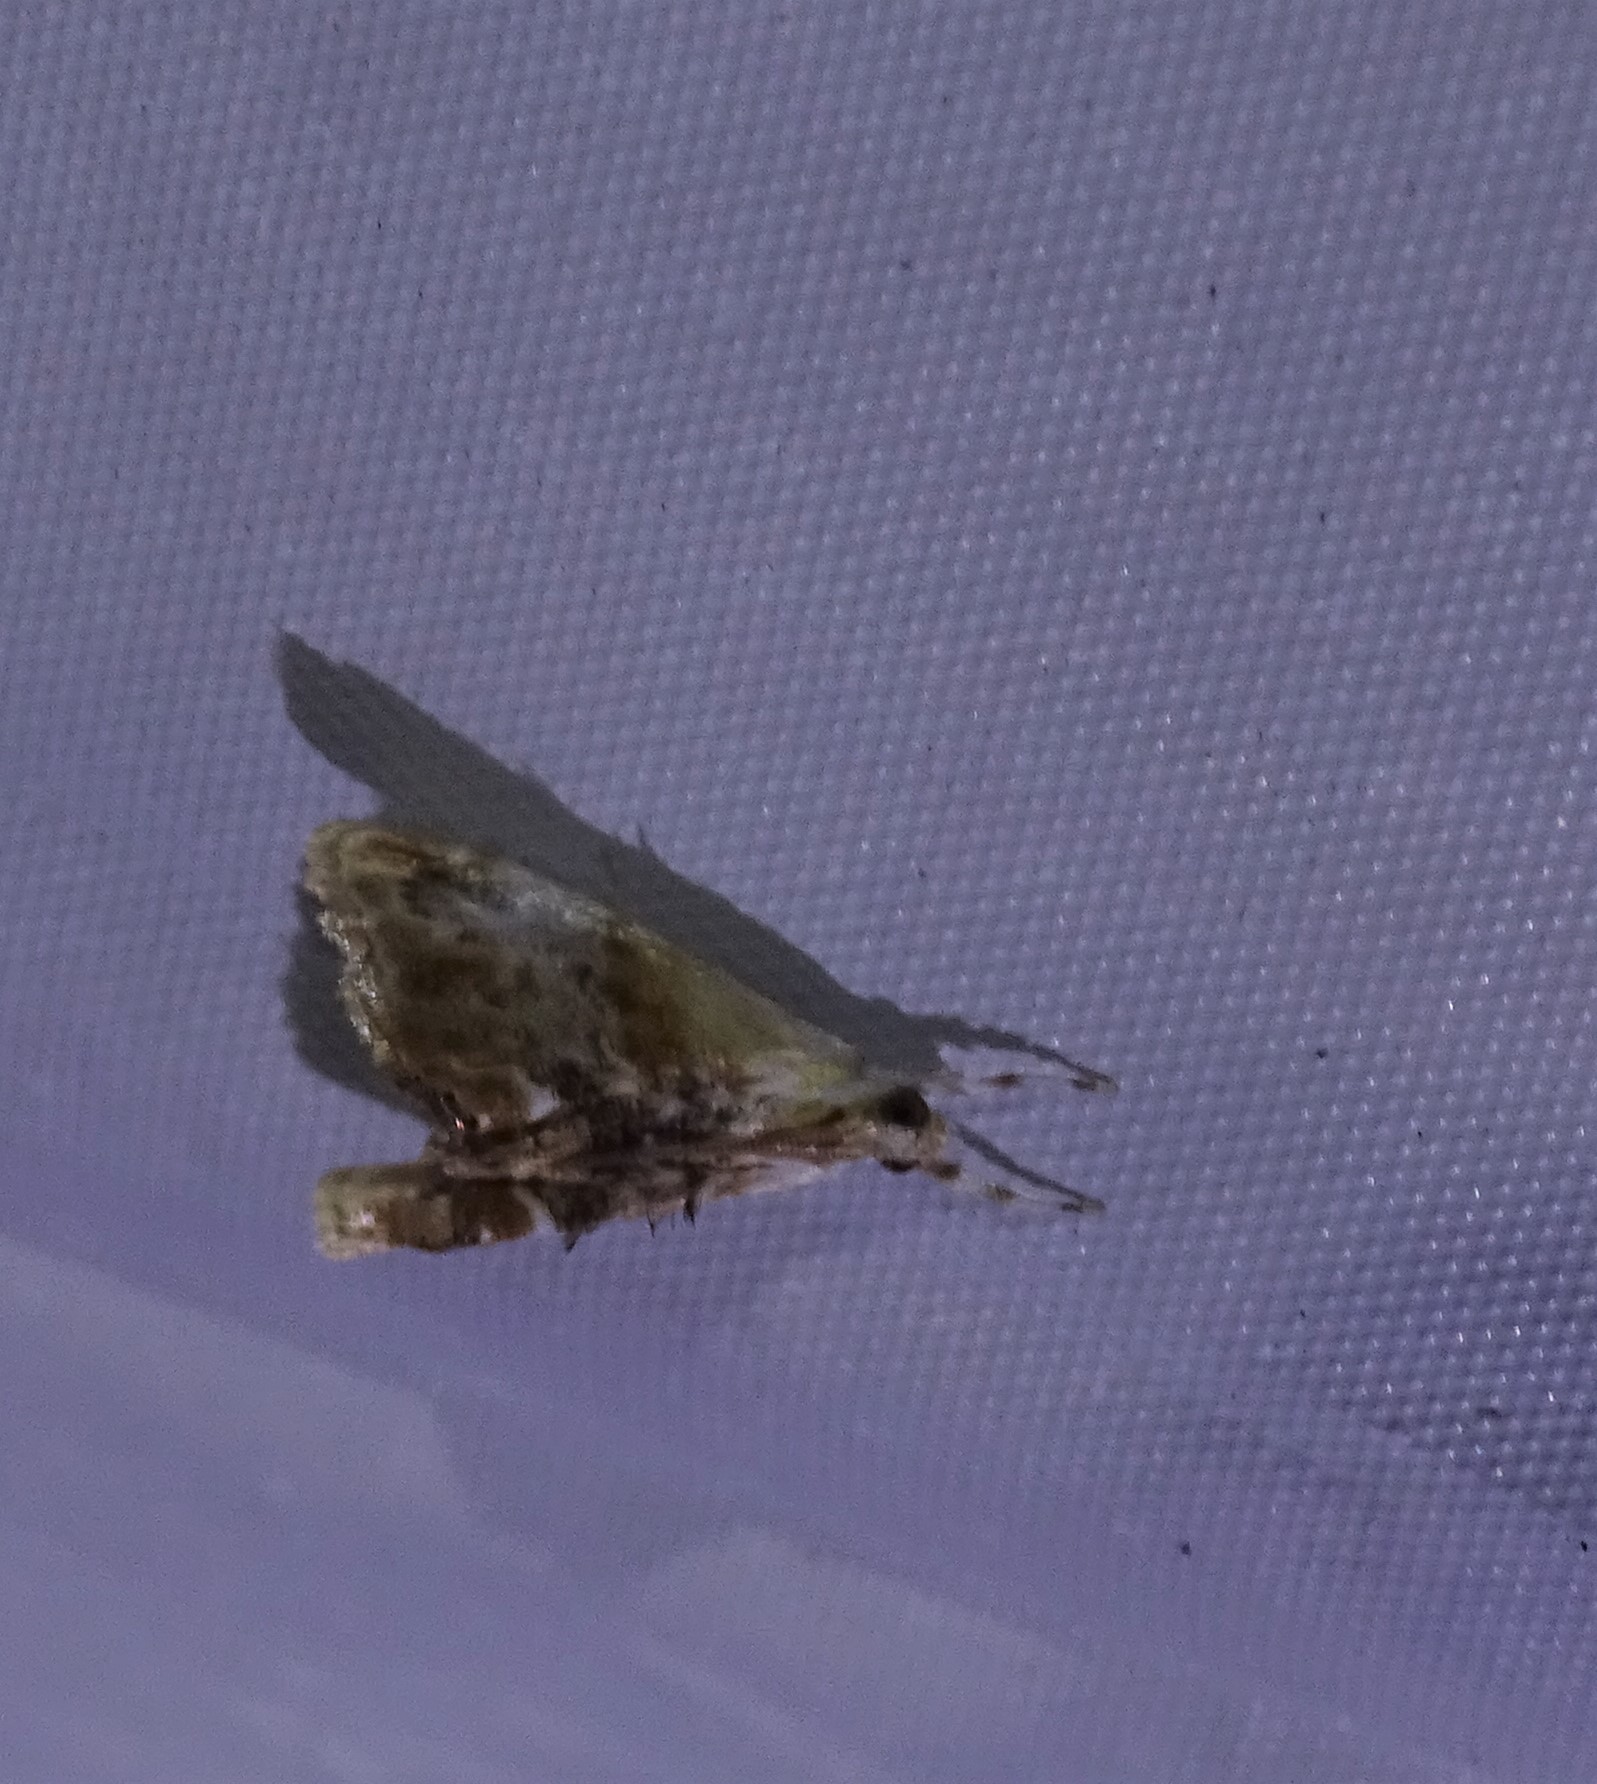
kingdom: Animalia
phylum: Arthropoda
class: Insecta
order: Lepidoptera
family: Crambidae
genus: Dicymolomia
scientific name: Dicymolomia julianalis
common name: Julia's dicymolomia moth
